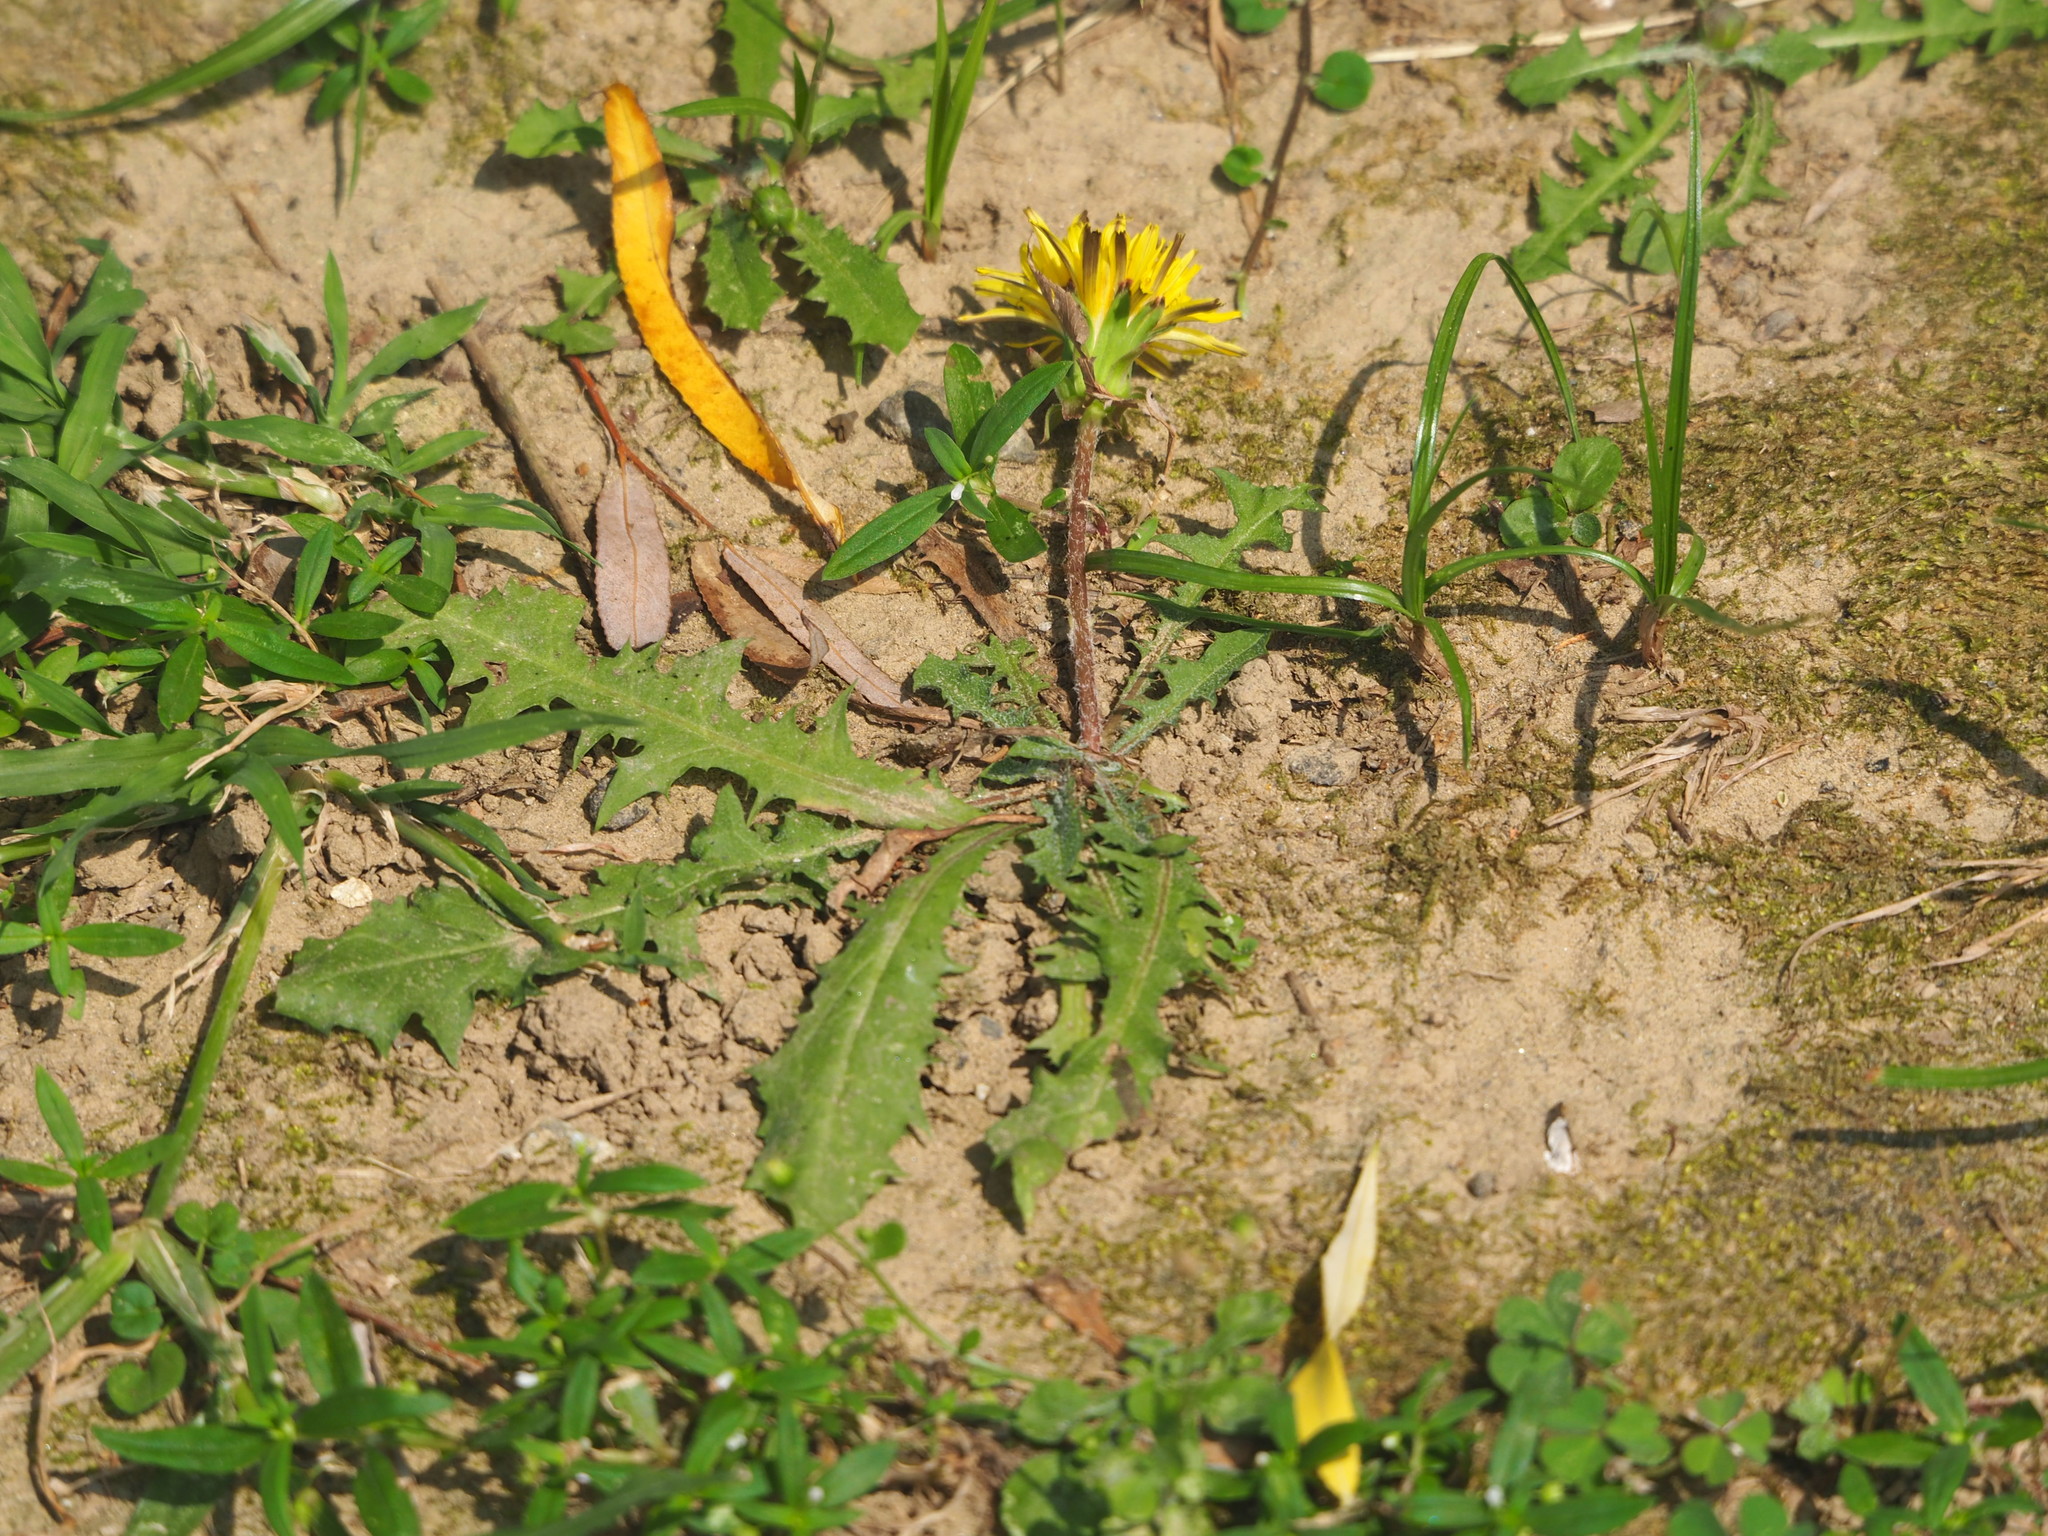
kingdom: Plantae
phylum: Tracheophyta
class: Magnoliopsida
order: Asterales
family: Asteraceae
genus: Taraxacum
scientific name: Taraxacum officinale
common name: Common dandelion
